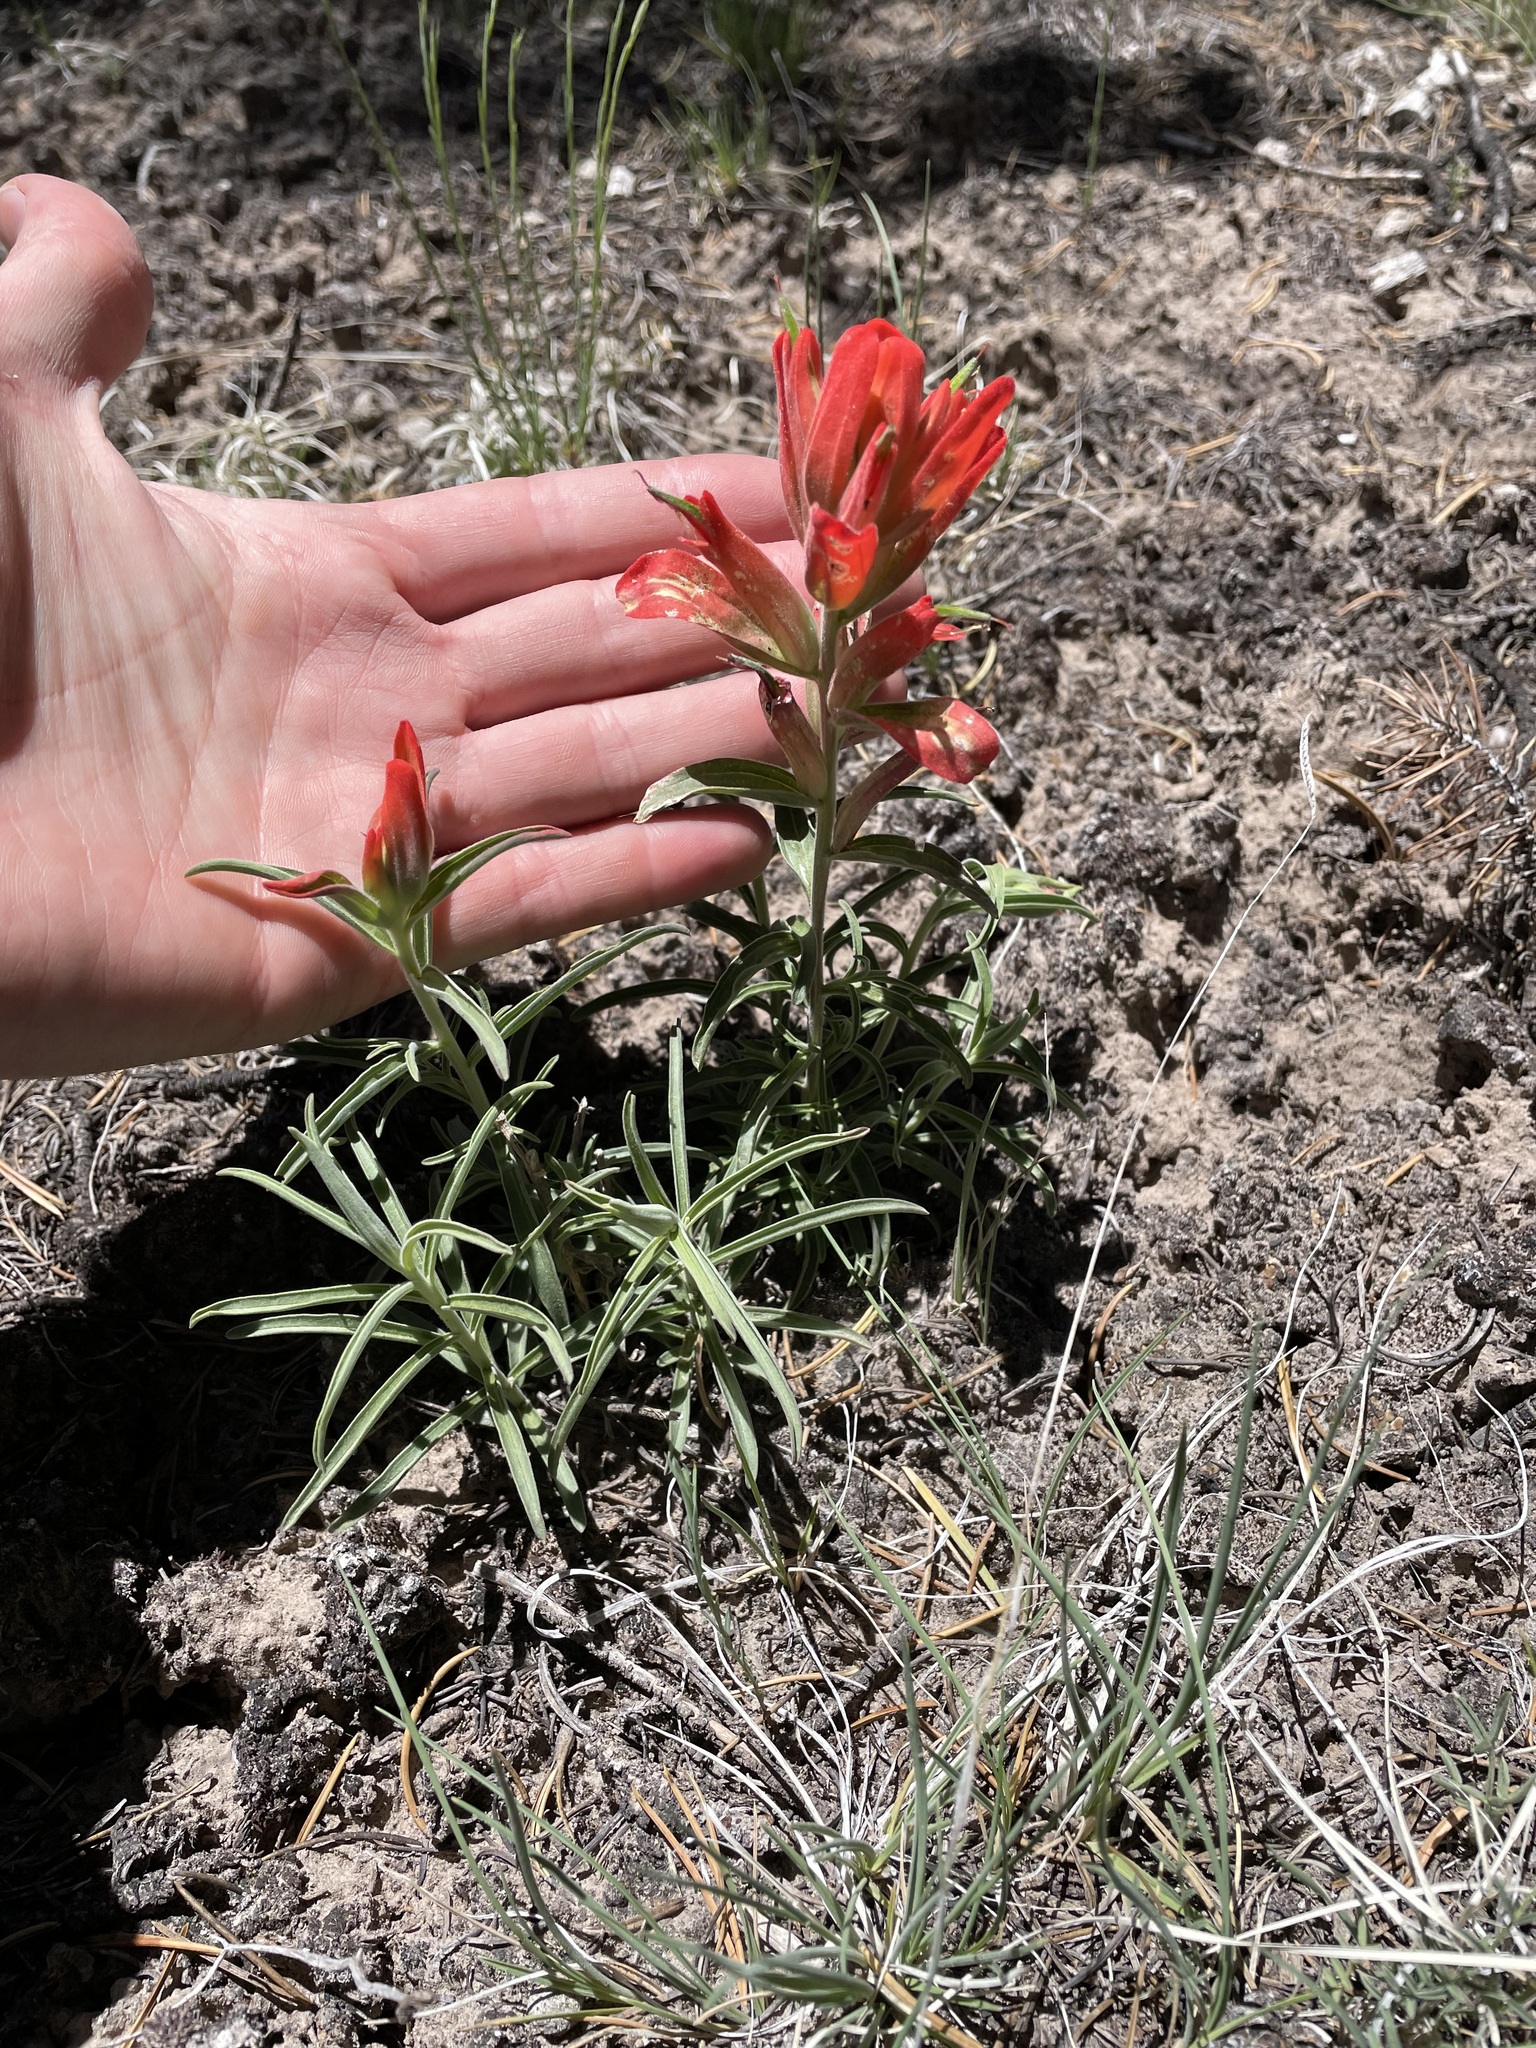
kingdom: Plantae
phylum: Tracheophyta
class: Magnoliopsida
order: Lamiales
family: Orobanchaceae
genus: Castilleja
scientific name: Castilleja integra
